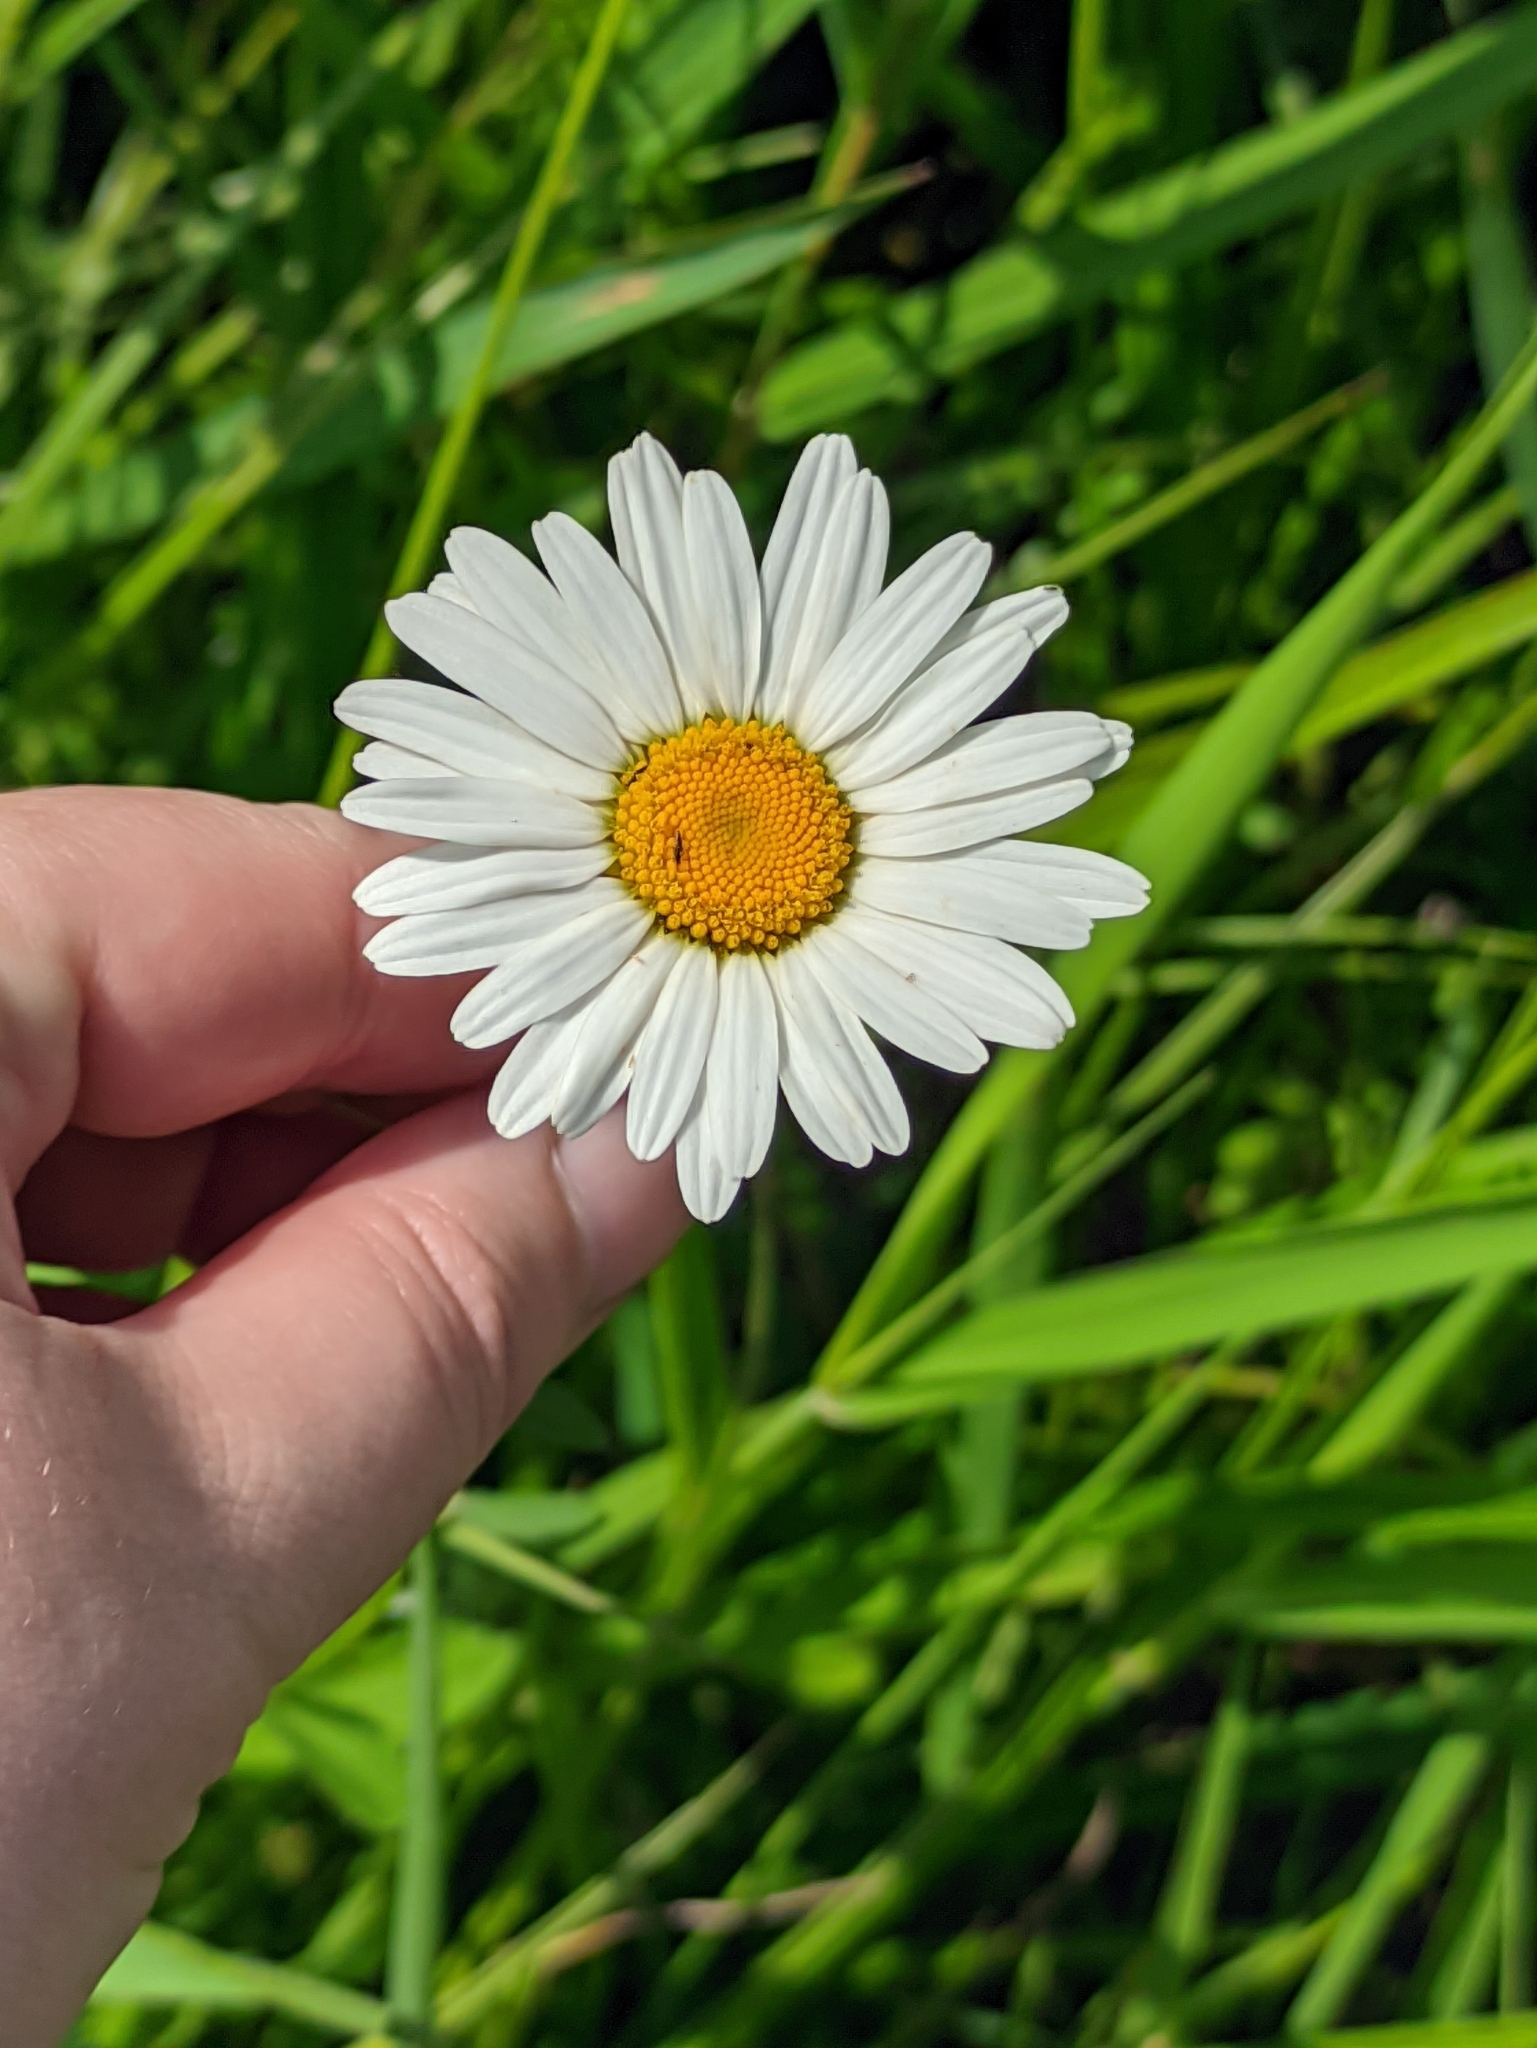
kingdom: Plantae
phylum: Tracheophyta
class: Magnoliopsida
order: Asterales
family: Asteraceae
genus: Leucanthemum
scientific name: Leucanthemum vulgare
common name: Oxeye daisy
